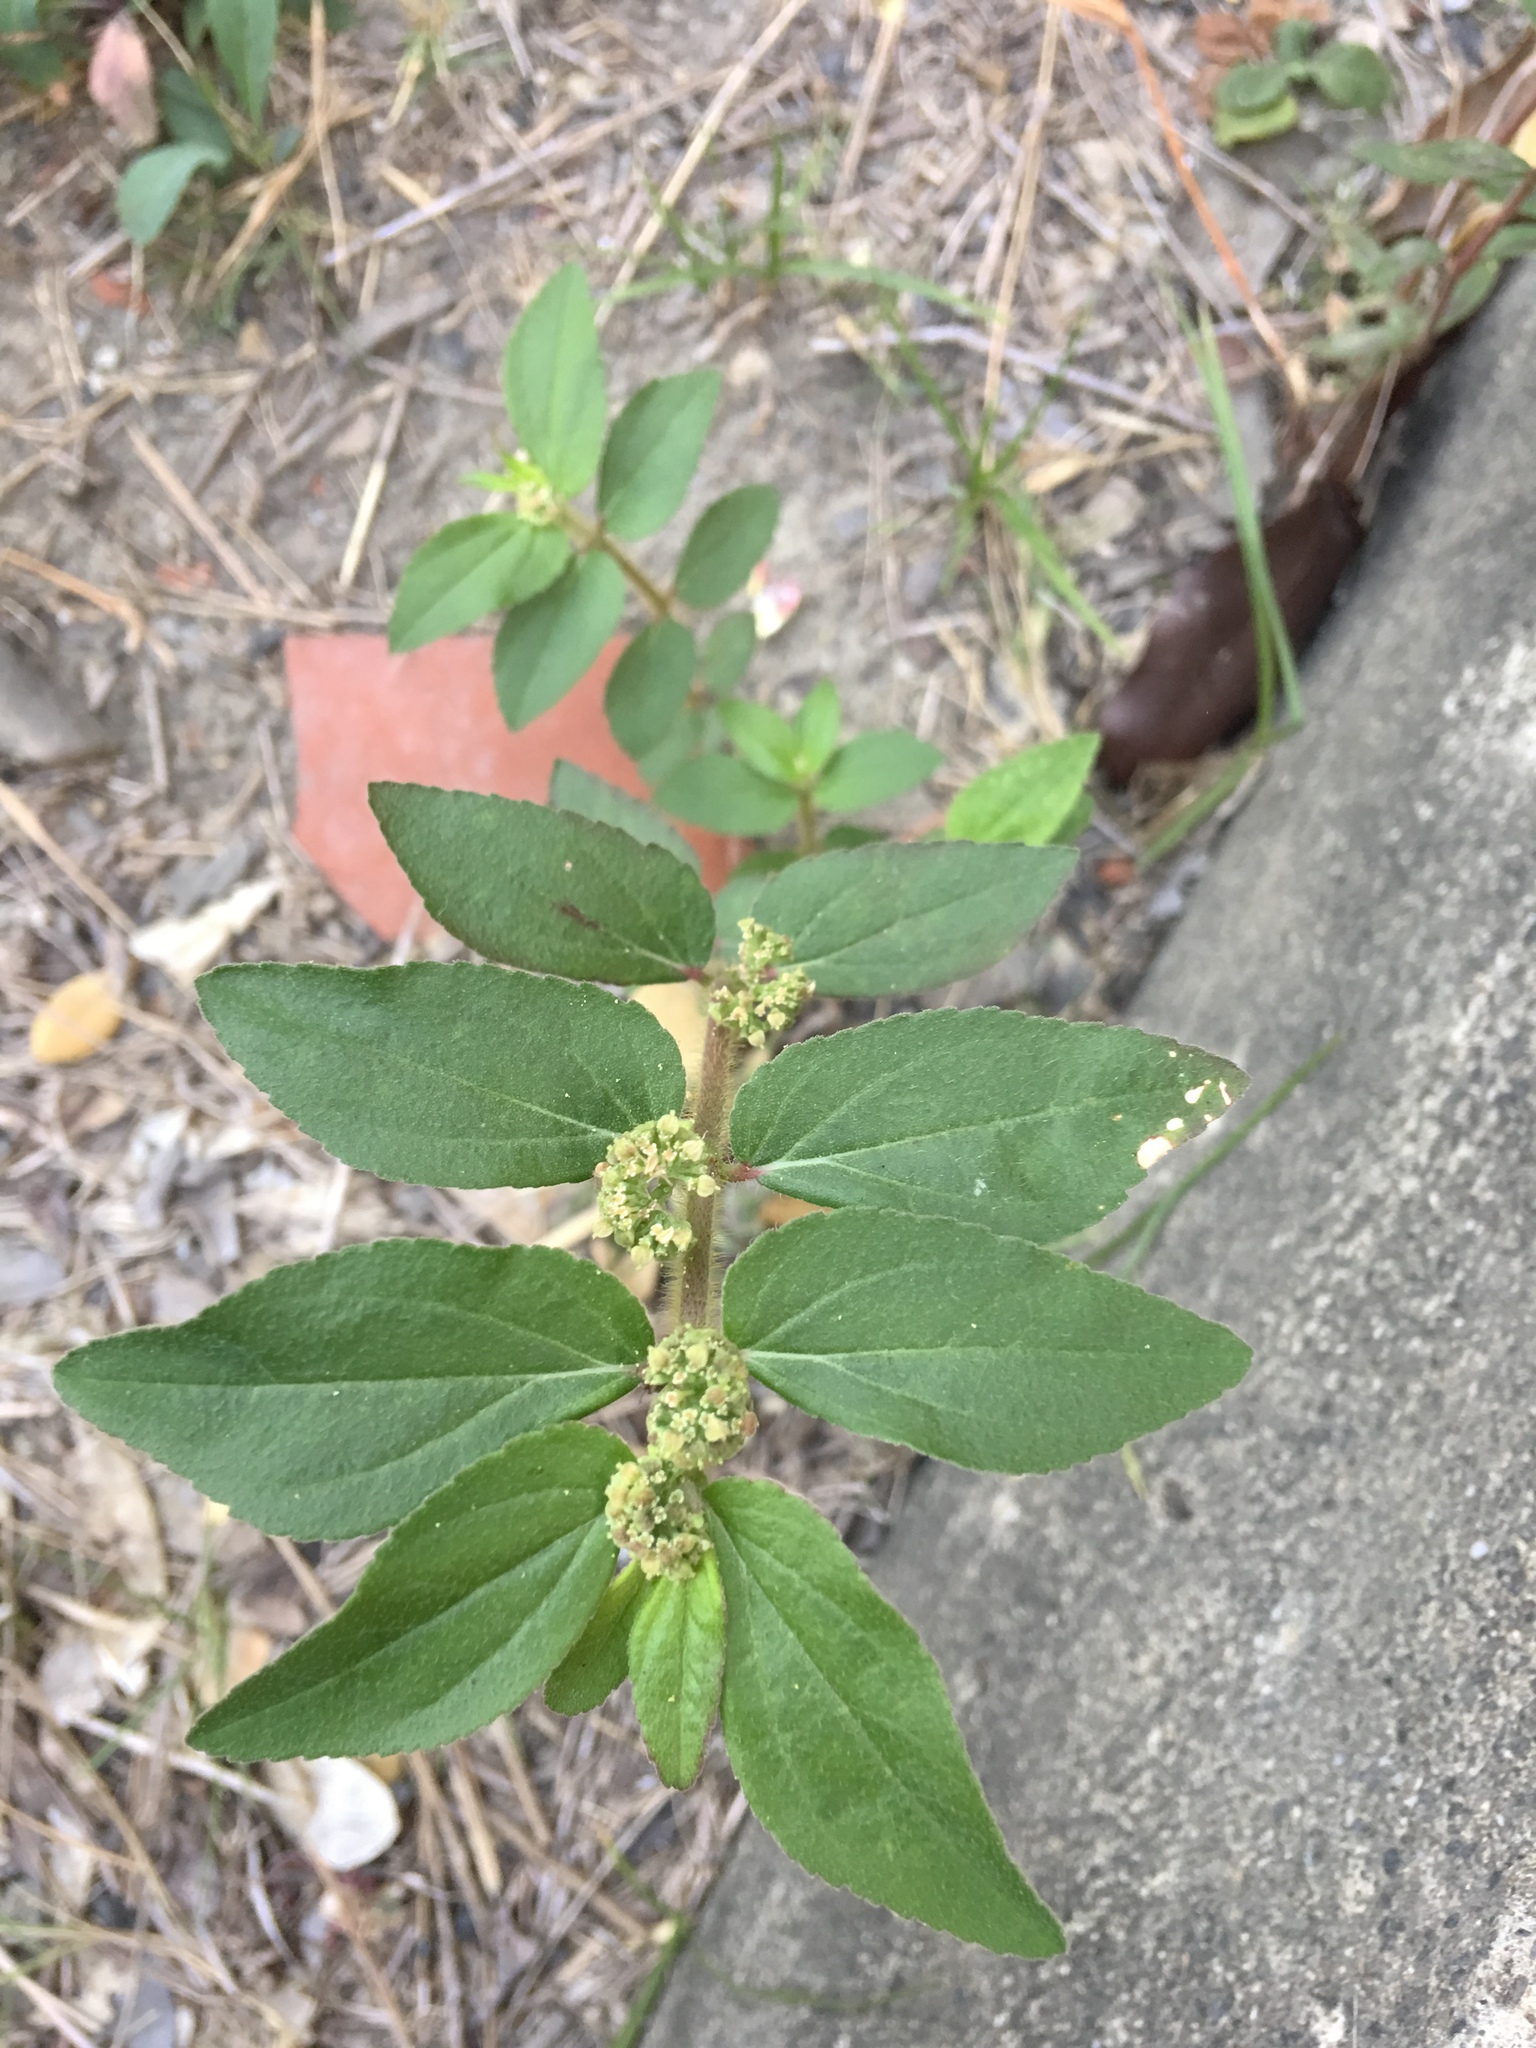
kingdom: Plantae
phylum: Tracheophyta
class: Magnoliopsida
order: Malpighiales
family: Euphorbiaceae
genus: Euphorbia
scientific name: Euphorbia hirta
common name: Pillpod sandmat
